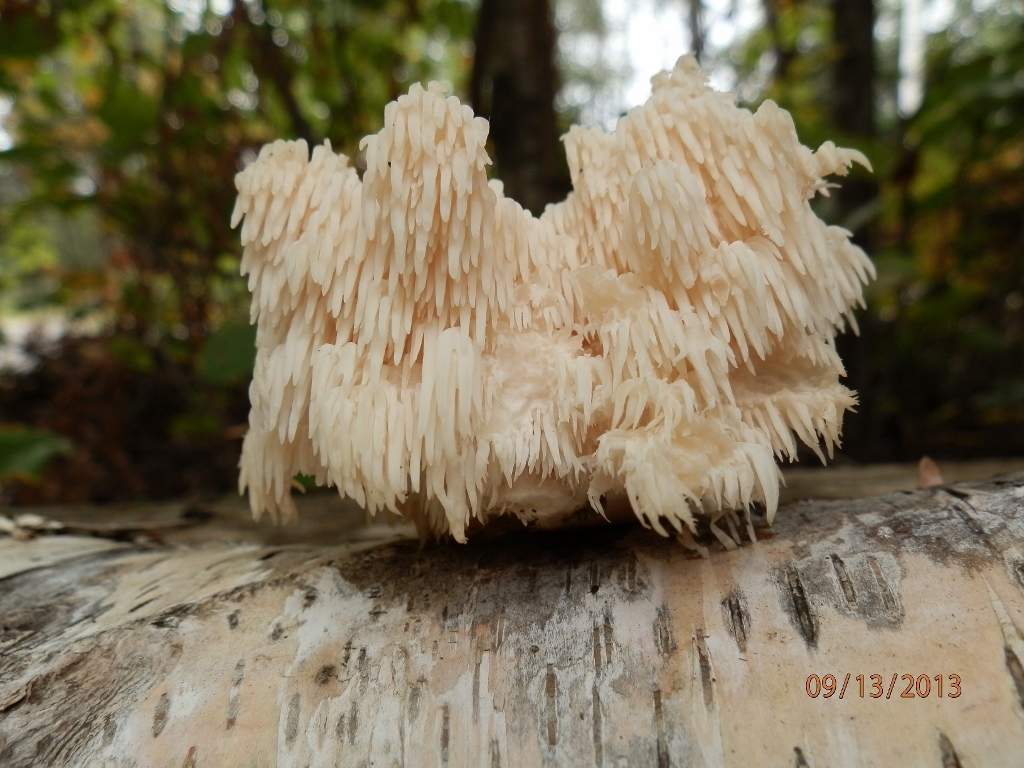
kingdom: Fungi
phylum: Basidiomycota
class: Agaricomycetes
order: Russulales
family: Hericiaceae
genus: Hericium
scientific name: Hericium americanum
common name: Bear's head tooth
